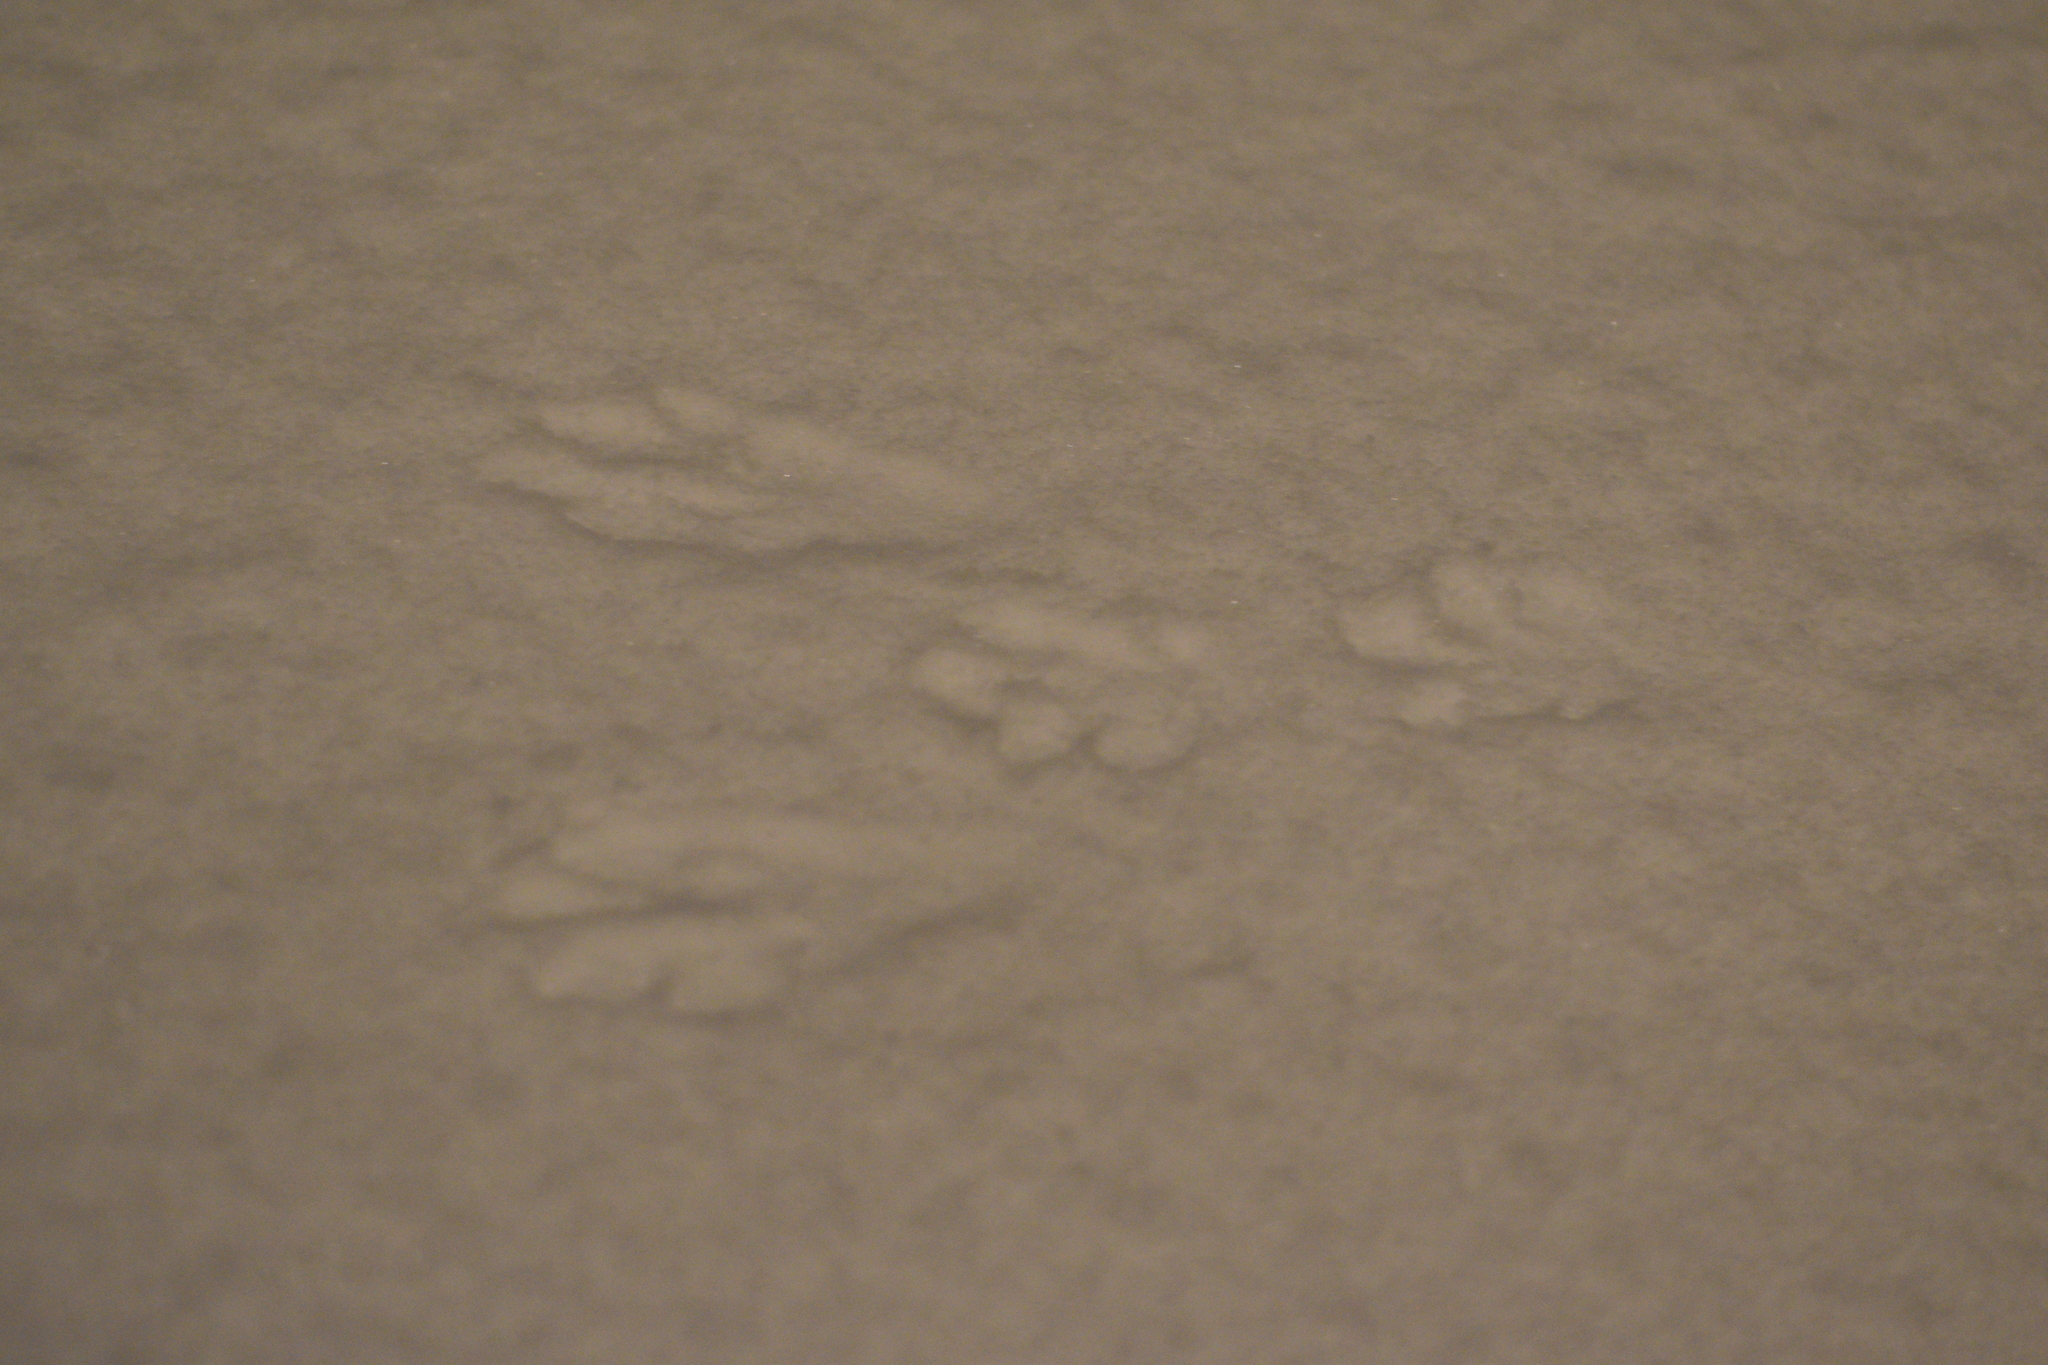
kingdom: Animalia
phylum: Chordata
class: Mammalia
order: Lagomorpha
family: Leporidae
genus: Sylvilagus
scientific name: Sylvilagus floridanus
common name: Eastern cottontail
